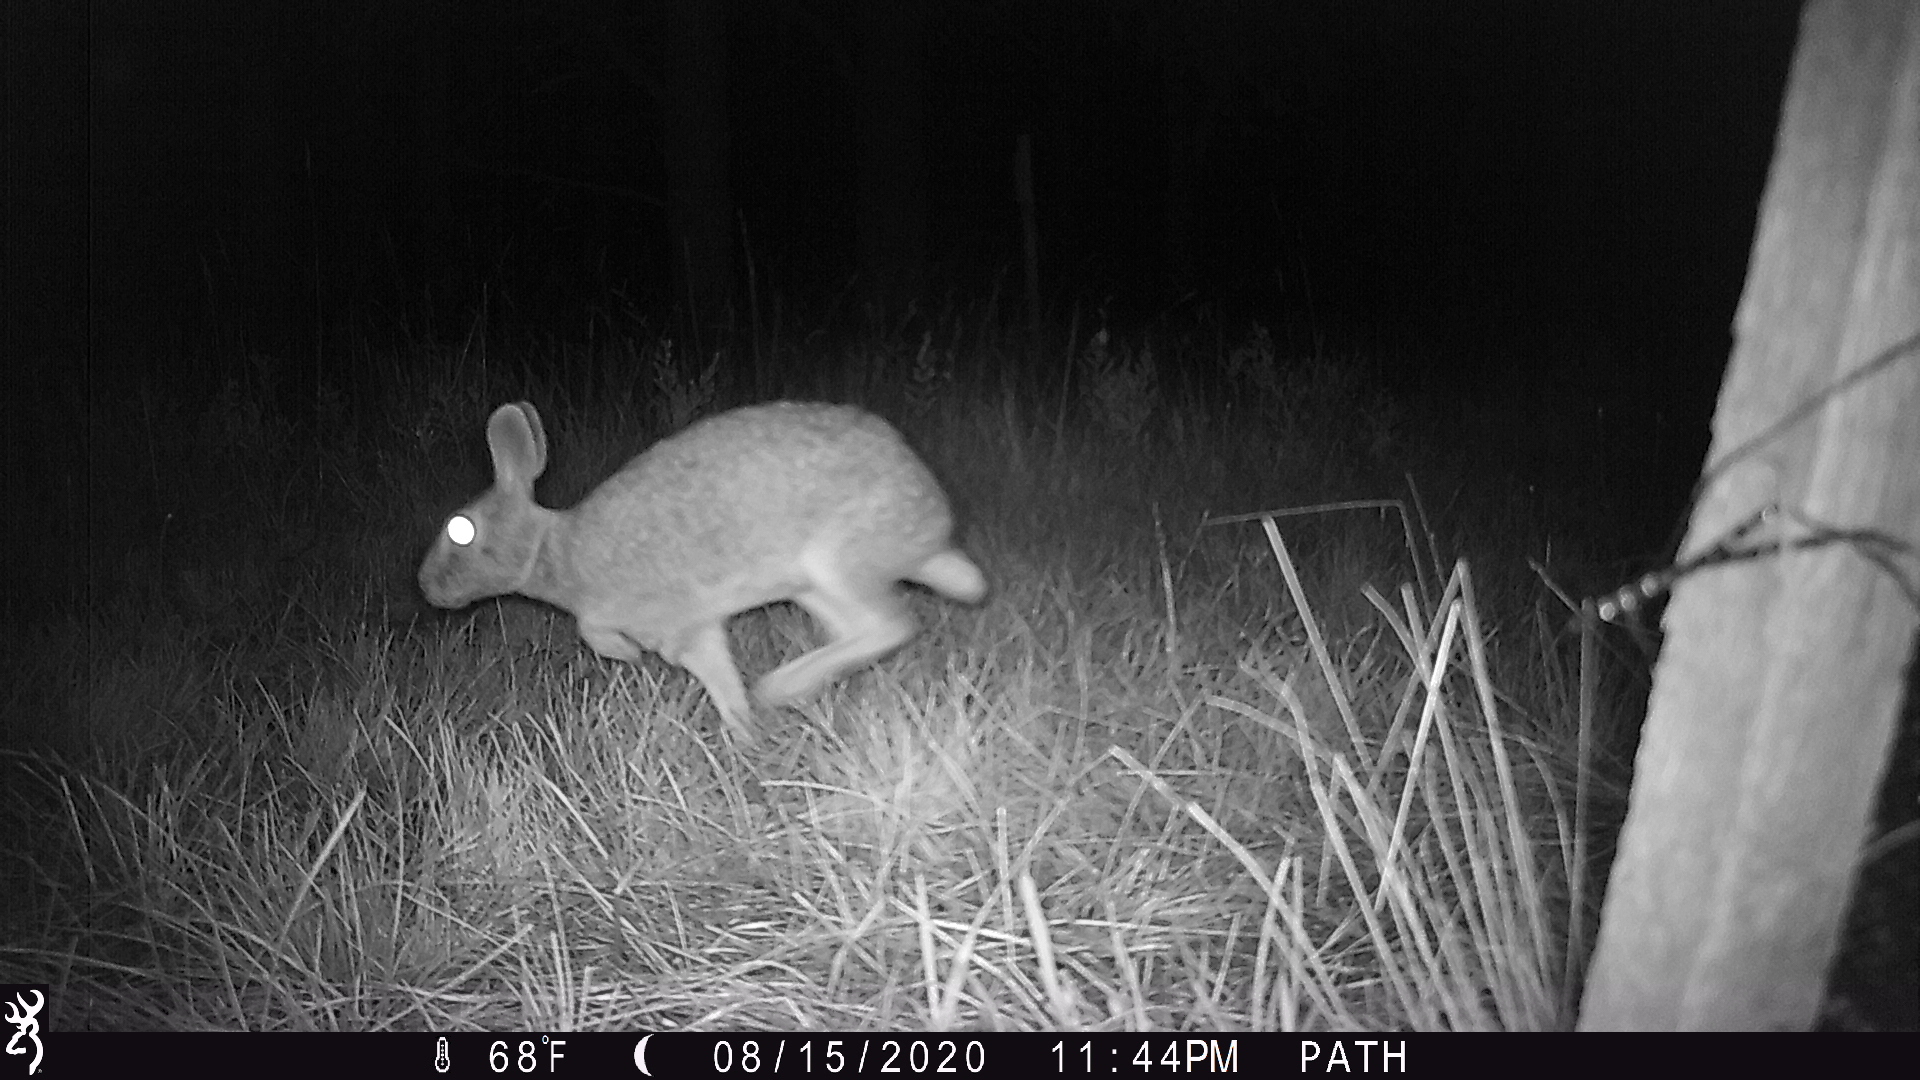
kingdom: Animalia
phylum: Chordata
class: Mammalia
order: Lagomorpha
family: Leporidae
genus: Sylvilagus
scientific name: Sylvilagus floridanus
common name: Eastern cottontail
